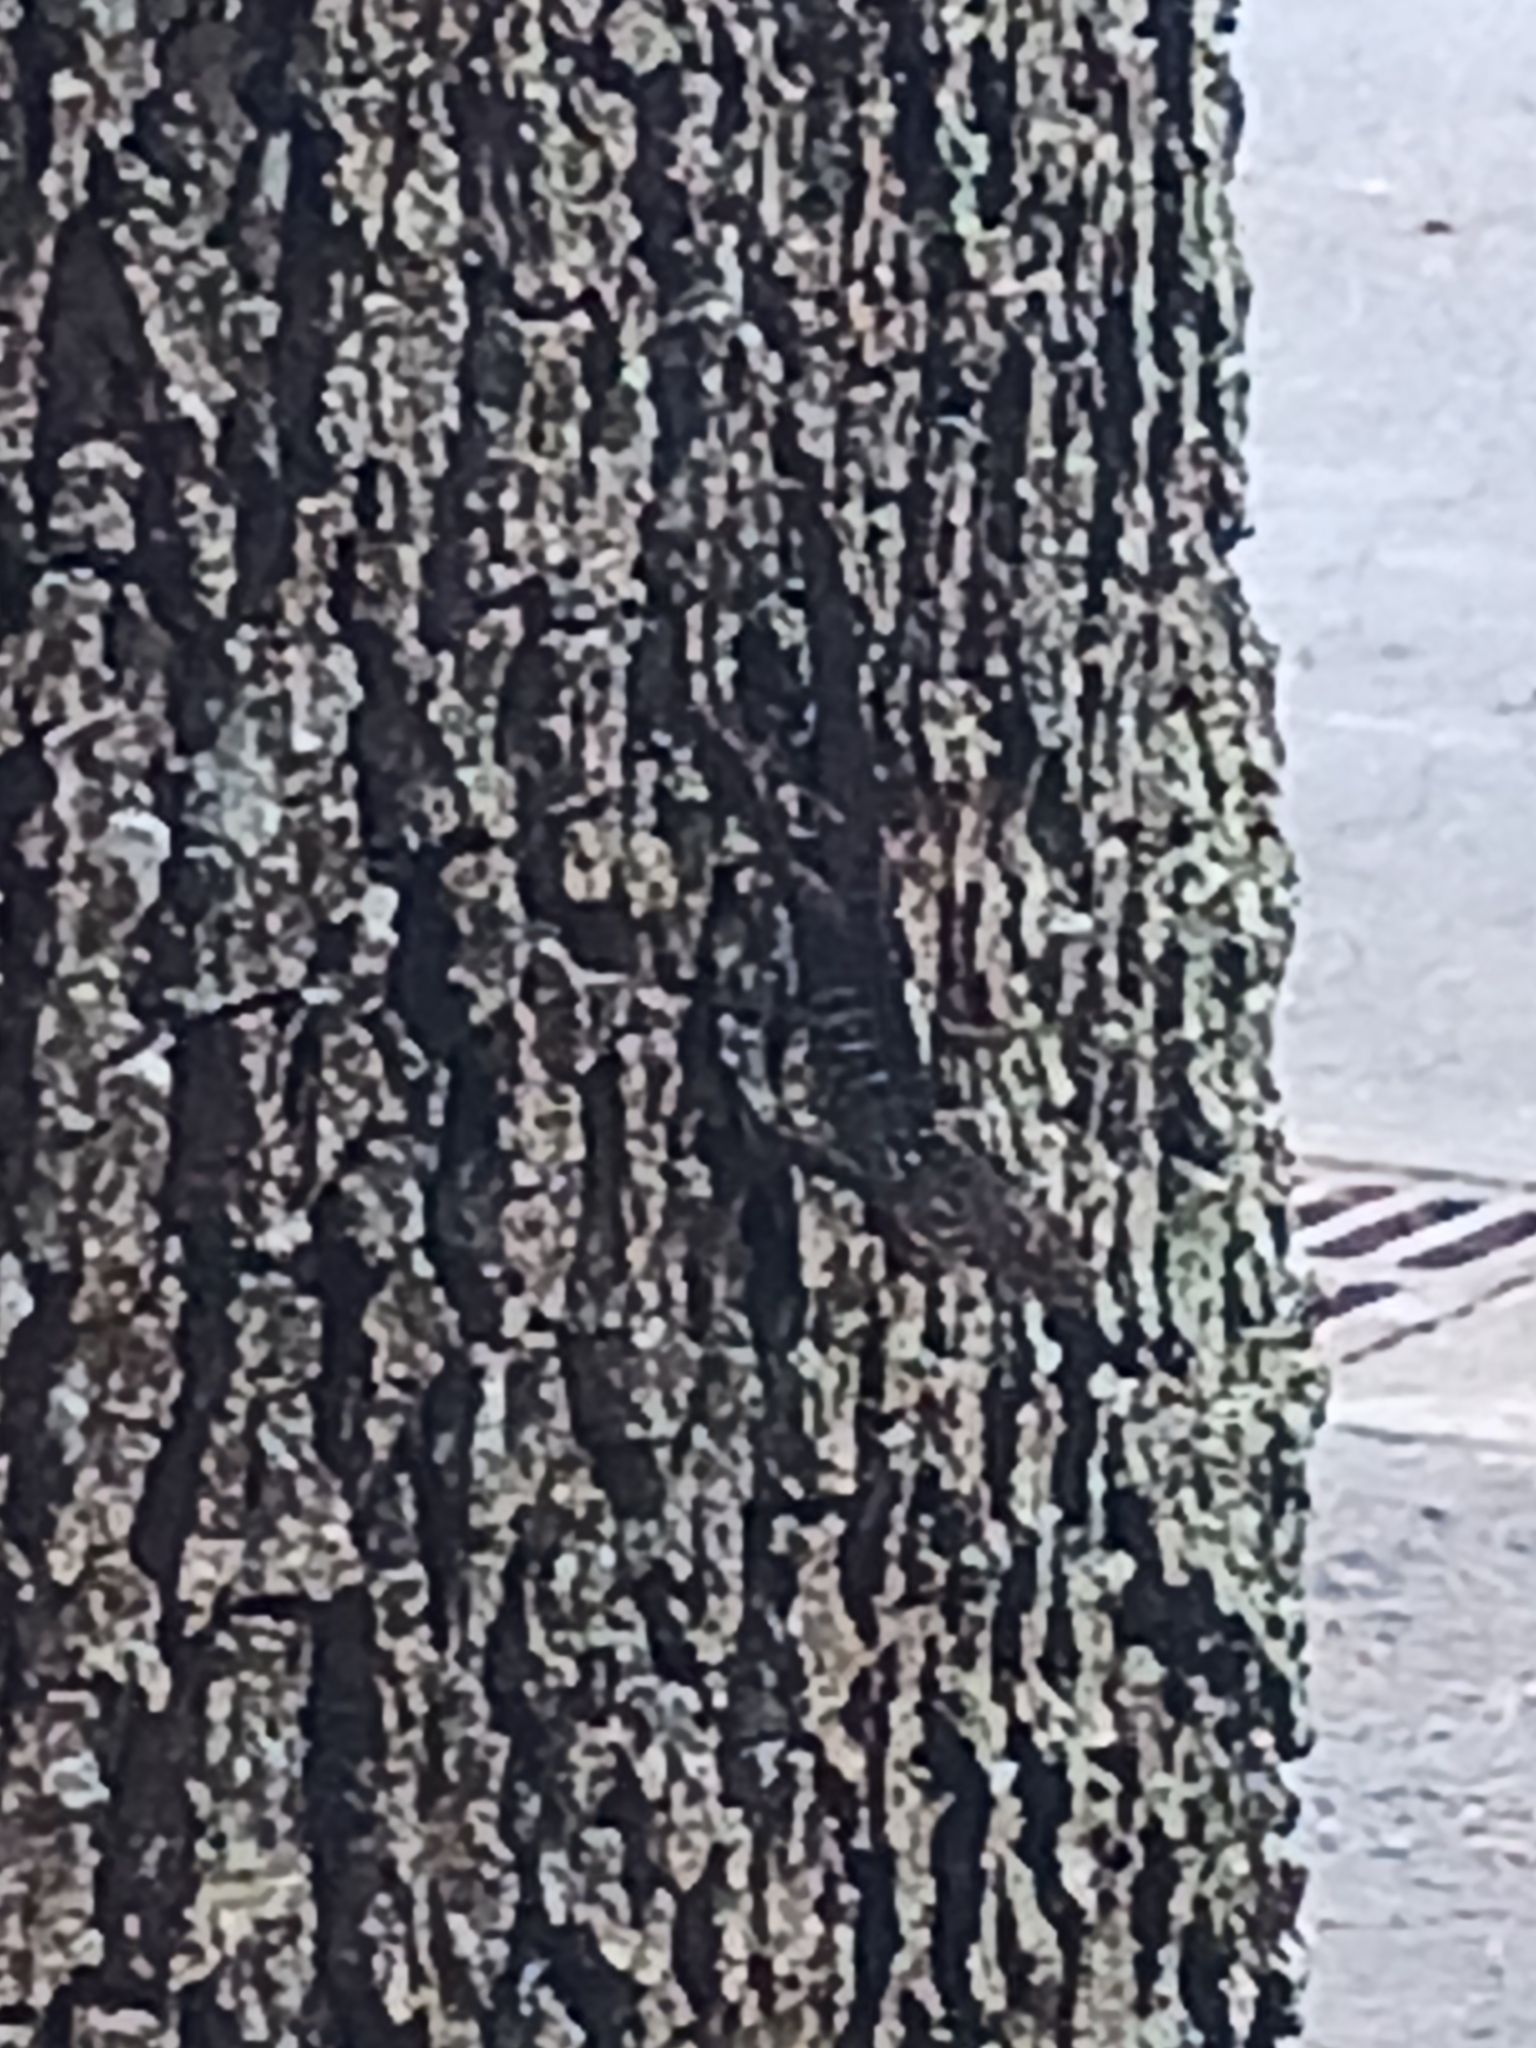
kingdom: Animalia
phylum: Chordata
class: Squamata
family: Dactyloidae
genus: Anolis
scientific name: Anolis sagrei
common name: Brown anole
